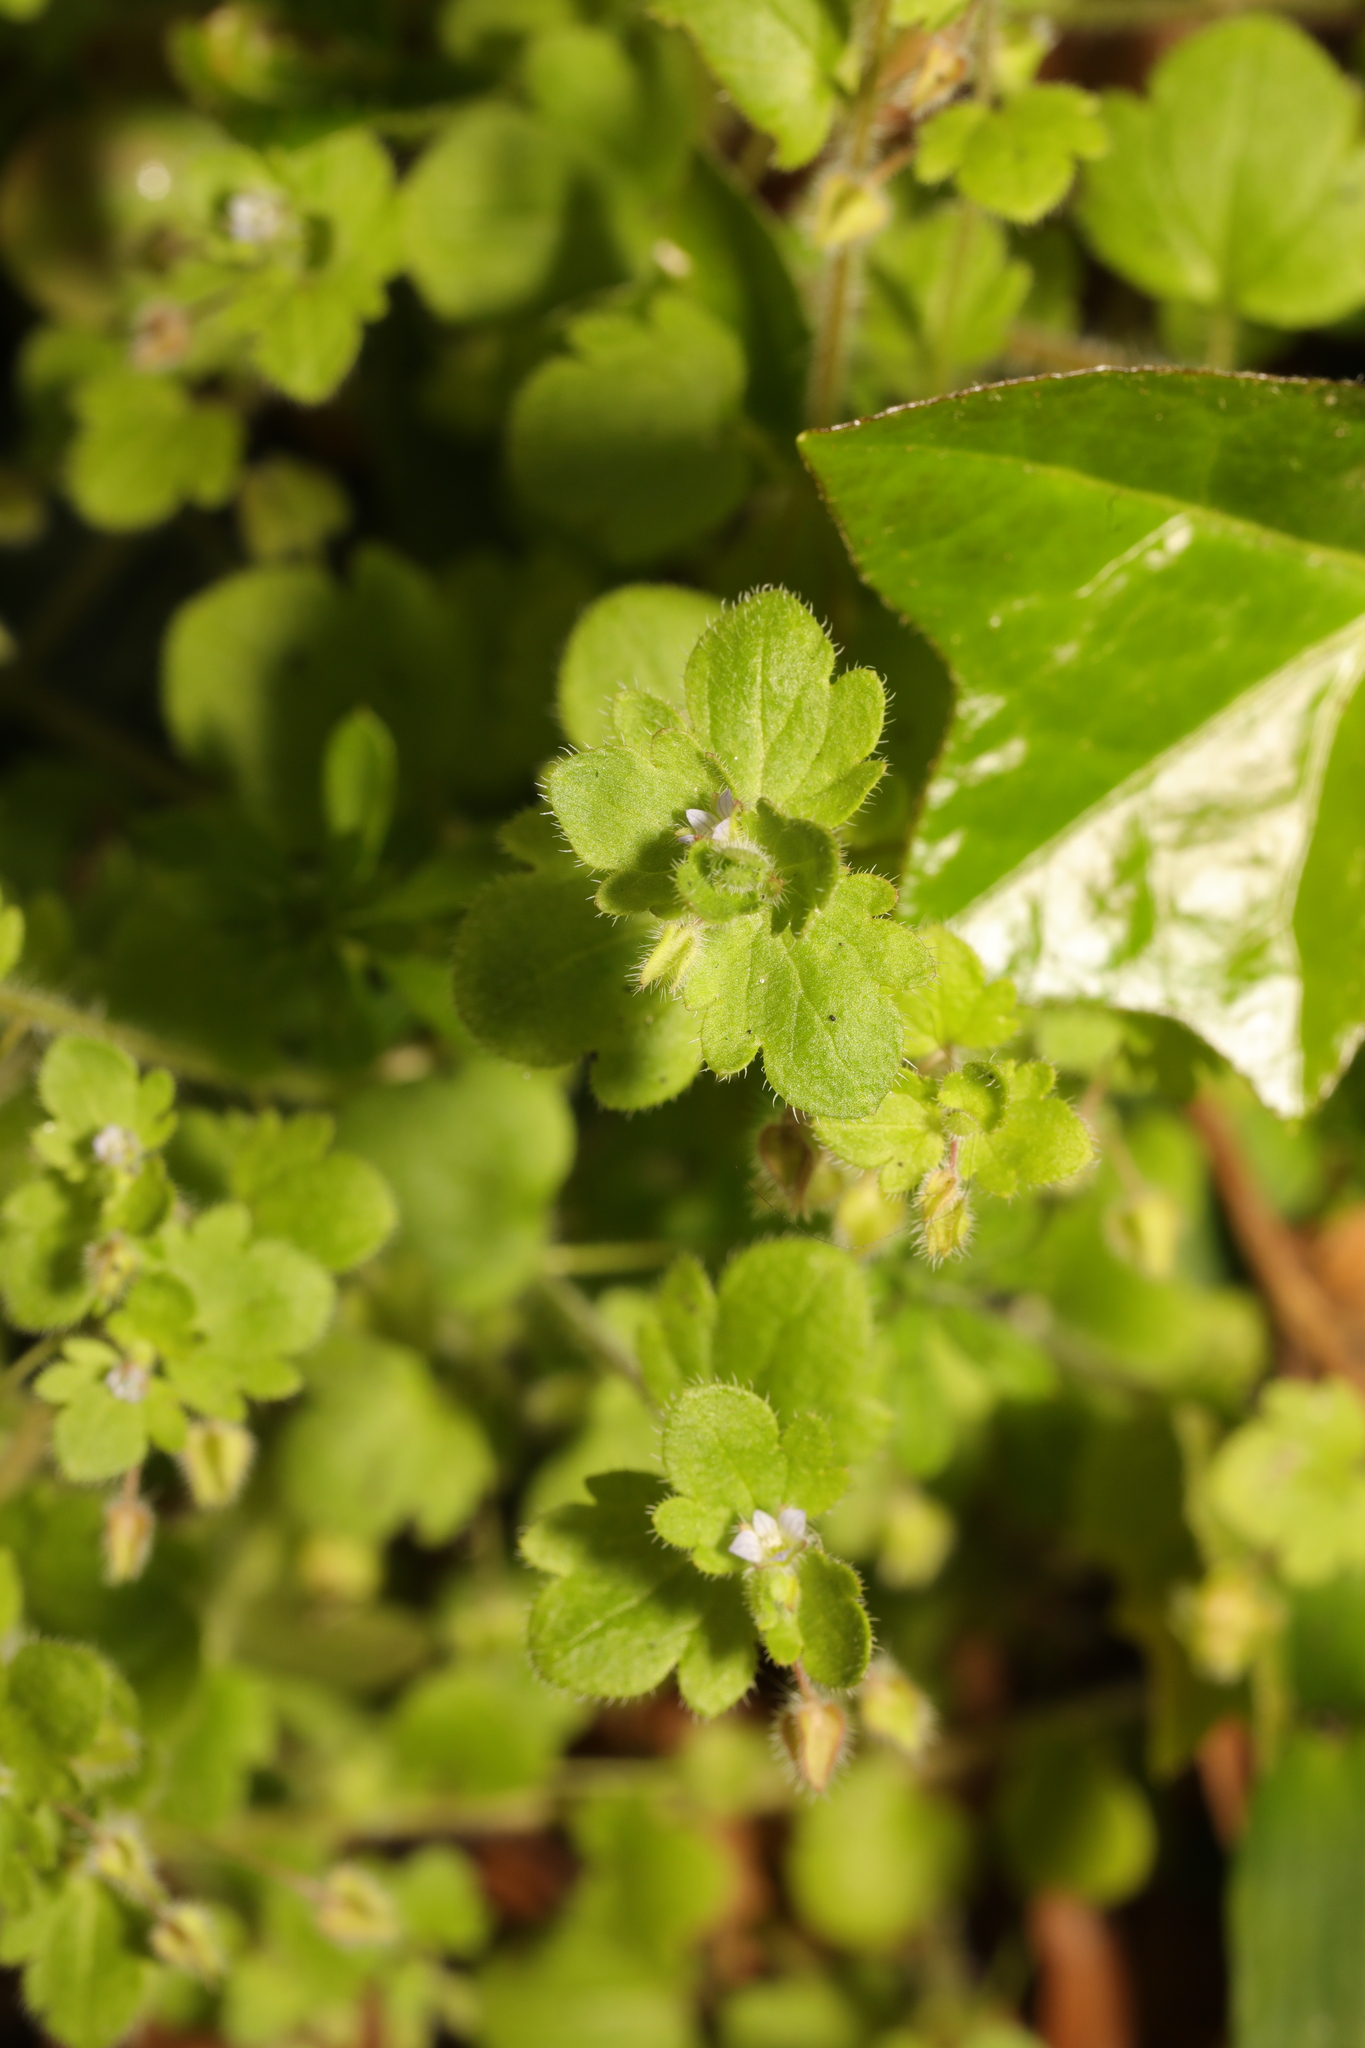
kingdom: Plantae
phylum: Tracheophyta
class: Magnoliopsida
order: Lamiales
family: Plantaginaceae
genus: Veronica
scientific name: Veronica sublobata
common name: False ivy-leaved speedwell
